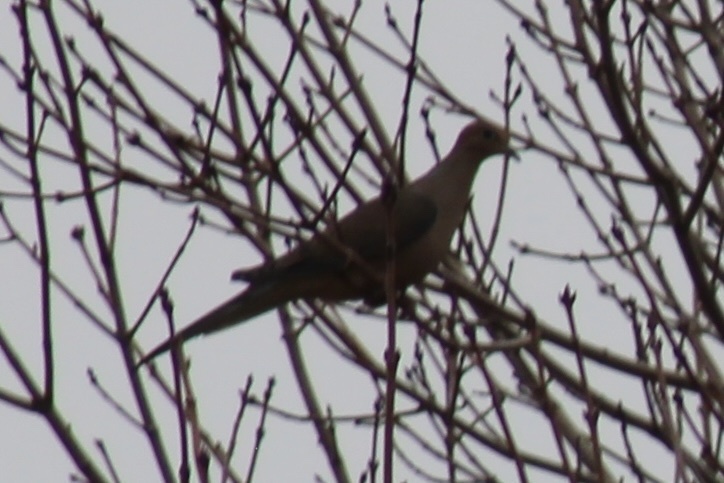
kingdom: Animalia
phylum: Chordata
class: Aves
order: Columbiformes
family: Columbidae
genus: Zenaida
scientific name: Zenaida macroura
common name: Mourning dove
